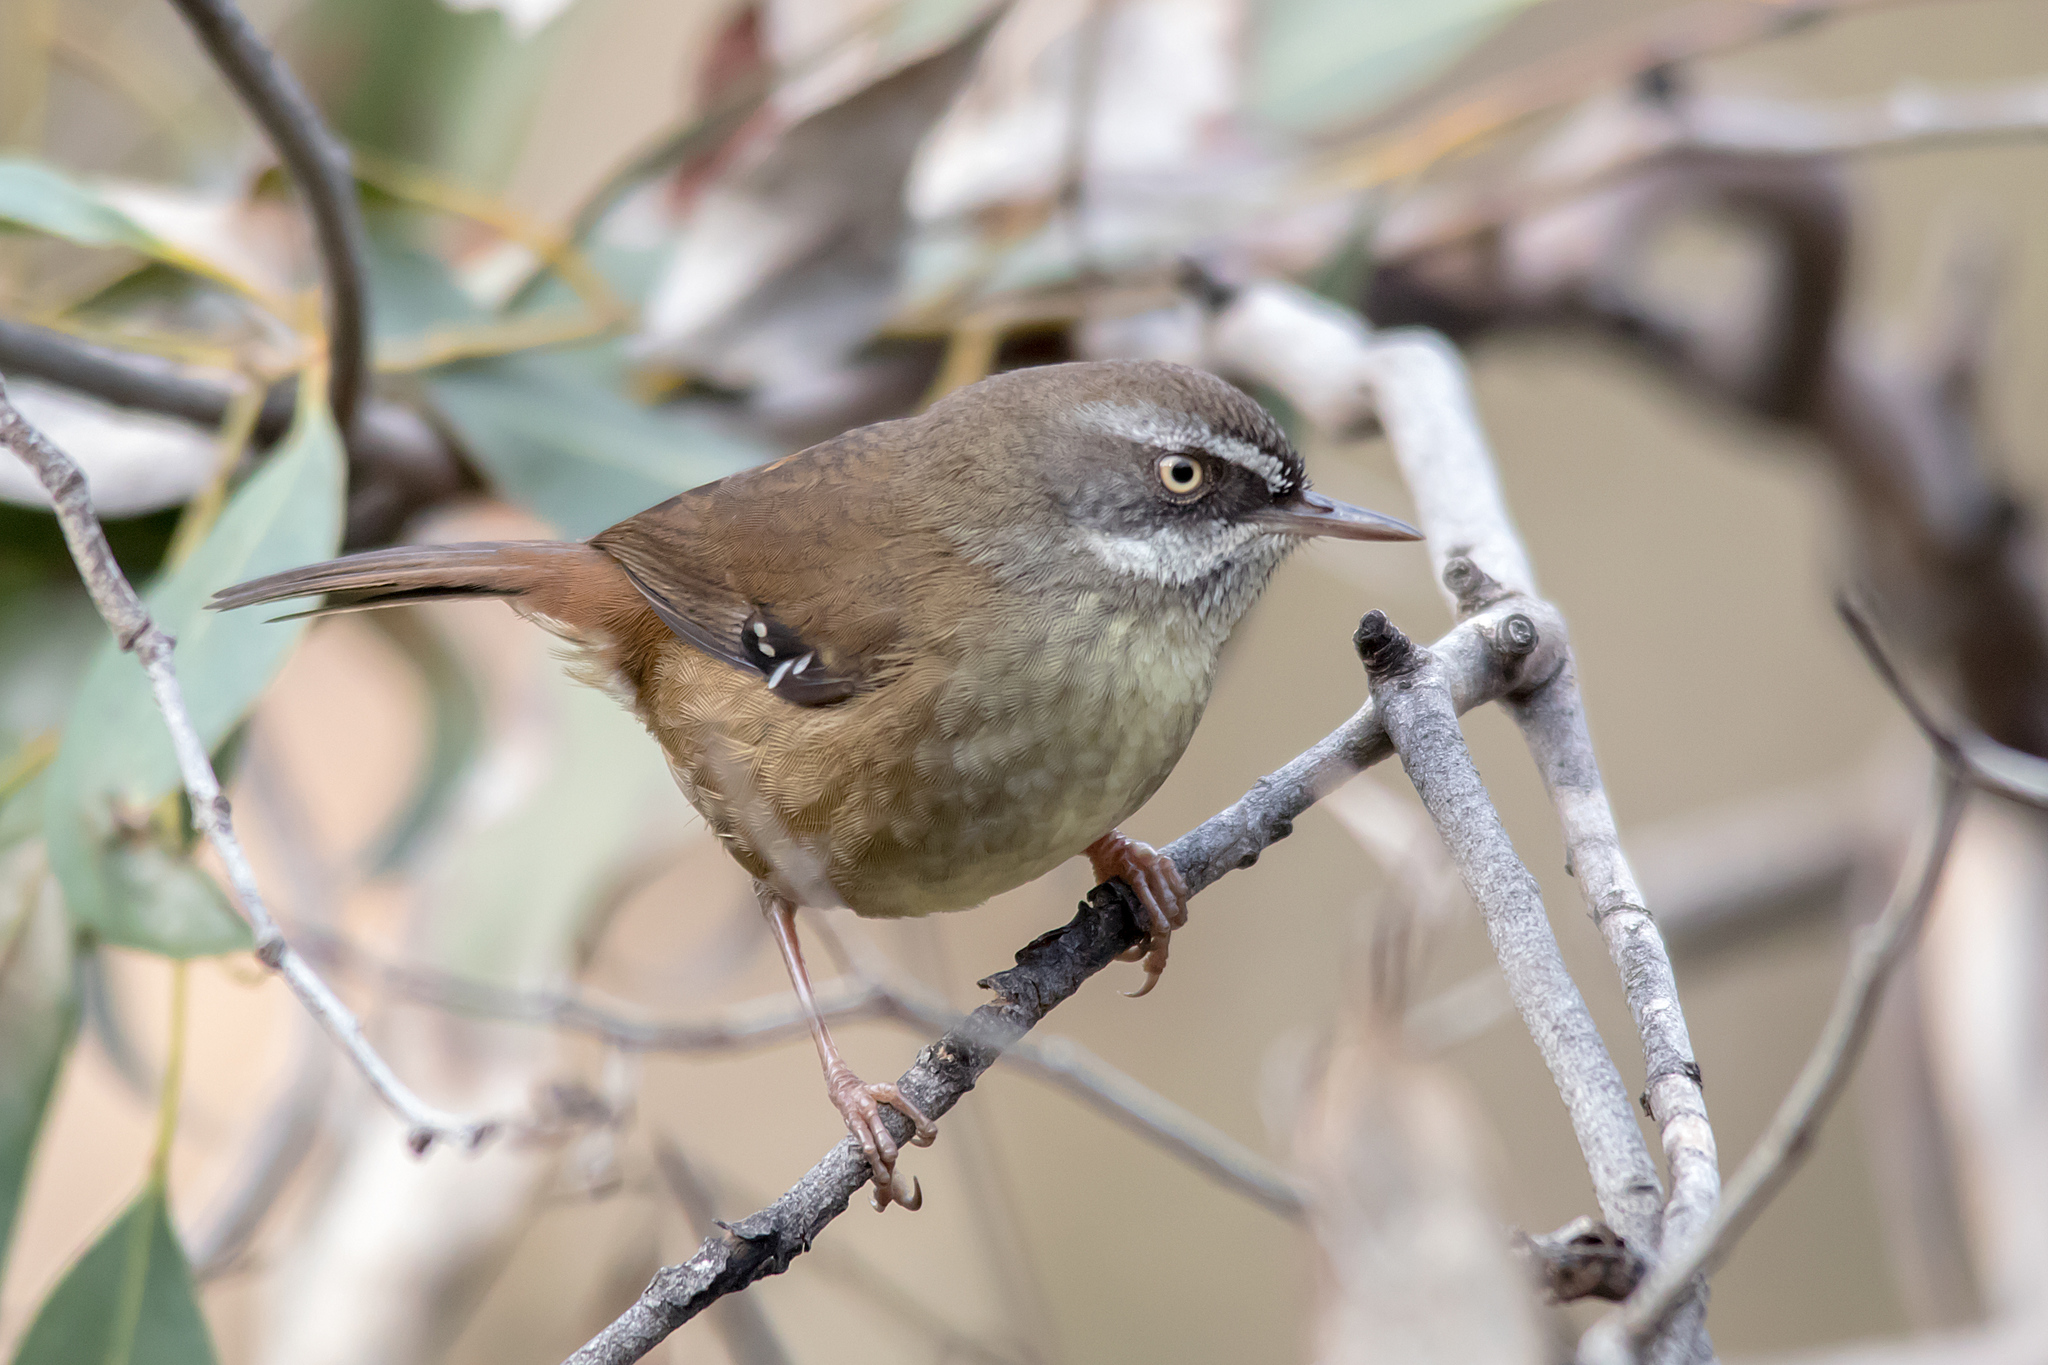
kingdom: Animalia
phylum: Chordata
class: Aves
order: Passeriformes
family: Acanthizidae
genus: Sericornis
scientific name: Sericornis frontalis
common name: White-browed scrubwren
